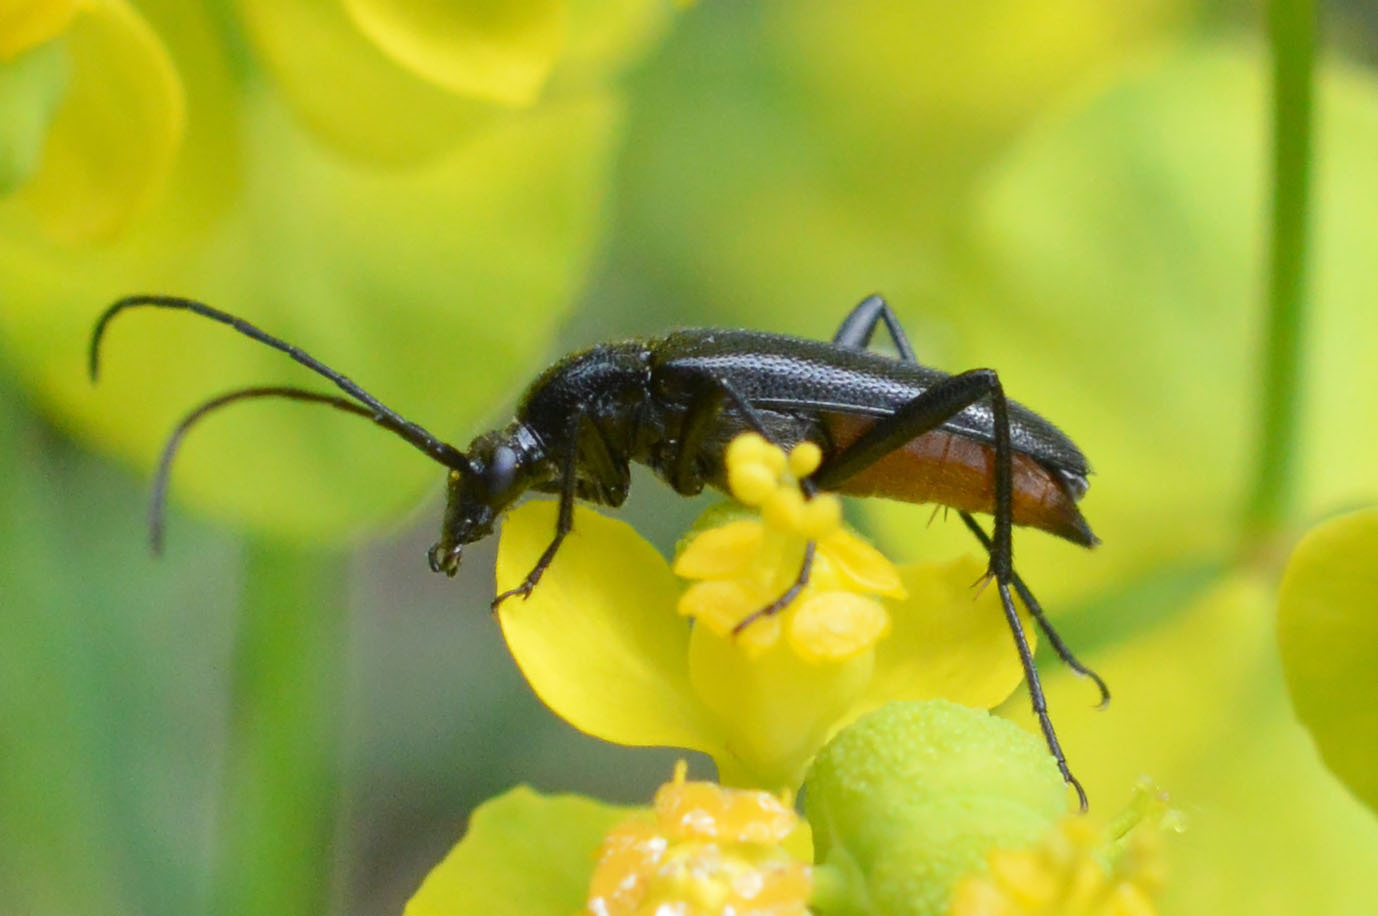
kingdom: Animalia
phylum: Arthropoda
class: Insecta
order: Coleoptera
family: Cerambycidae
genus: Stenurella
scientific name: Stenurella nigra
